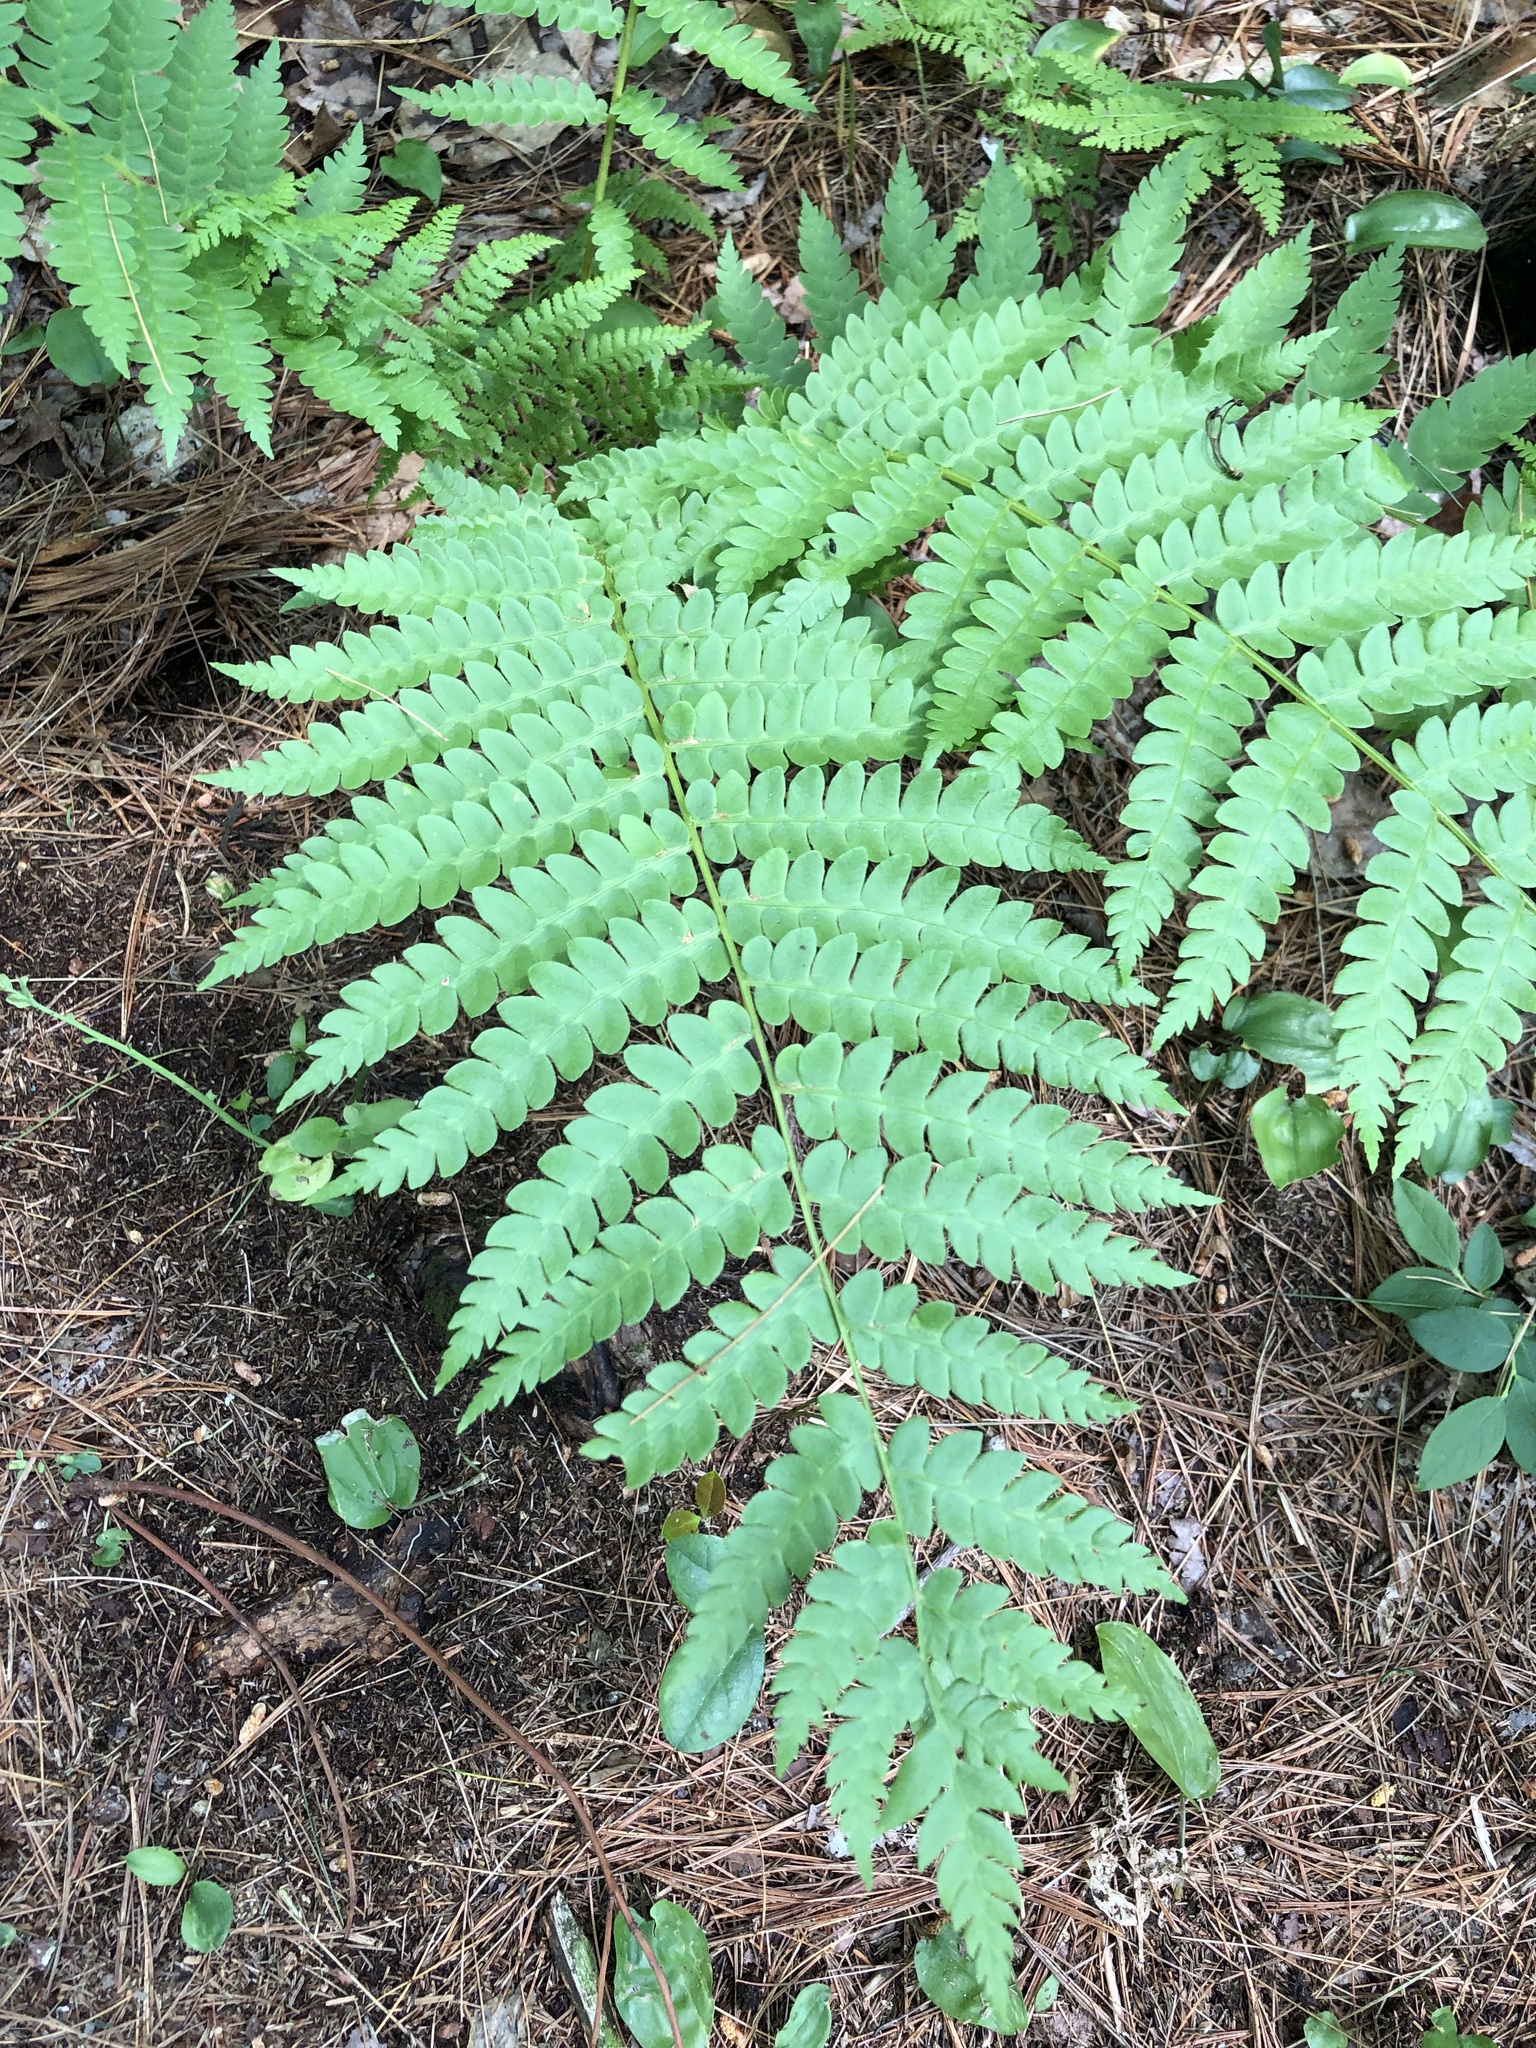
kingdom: Plantae
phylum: Tracheophyta
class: Polypodiopsida
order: Osmundales
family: Osmundaceae
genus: Osmundastrum
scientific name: Osmundastrum cinnamomeum
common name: Cinnamon fern
